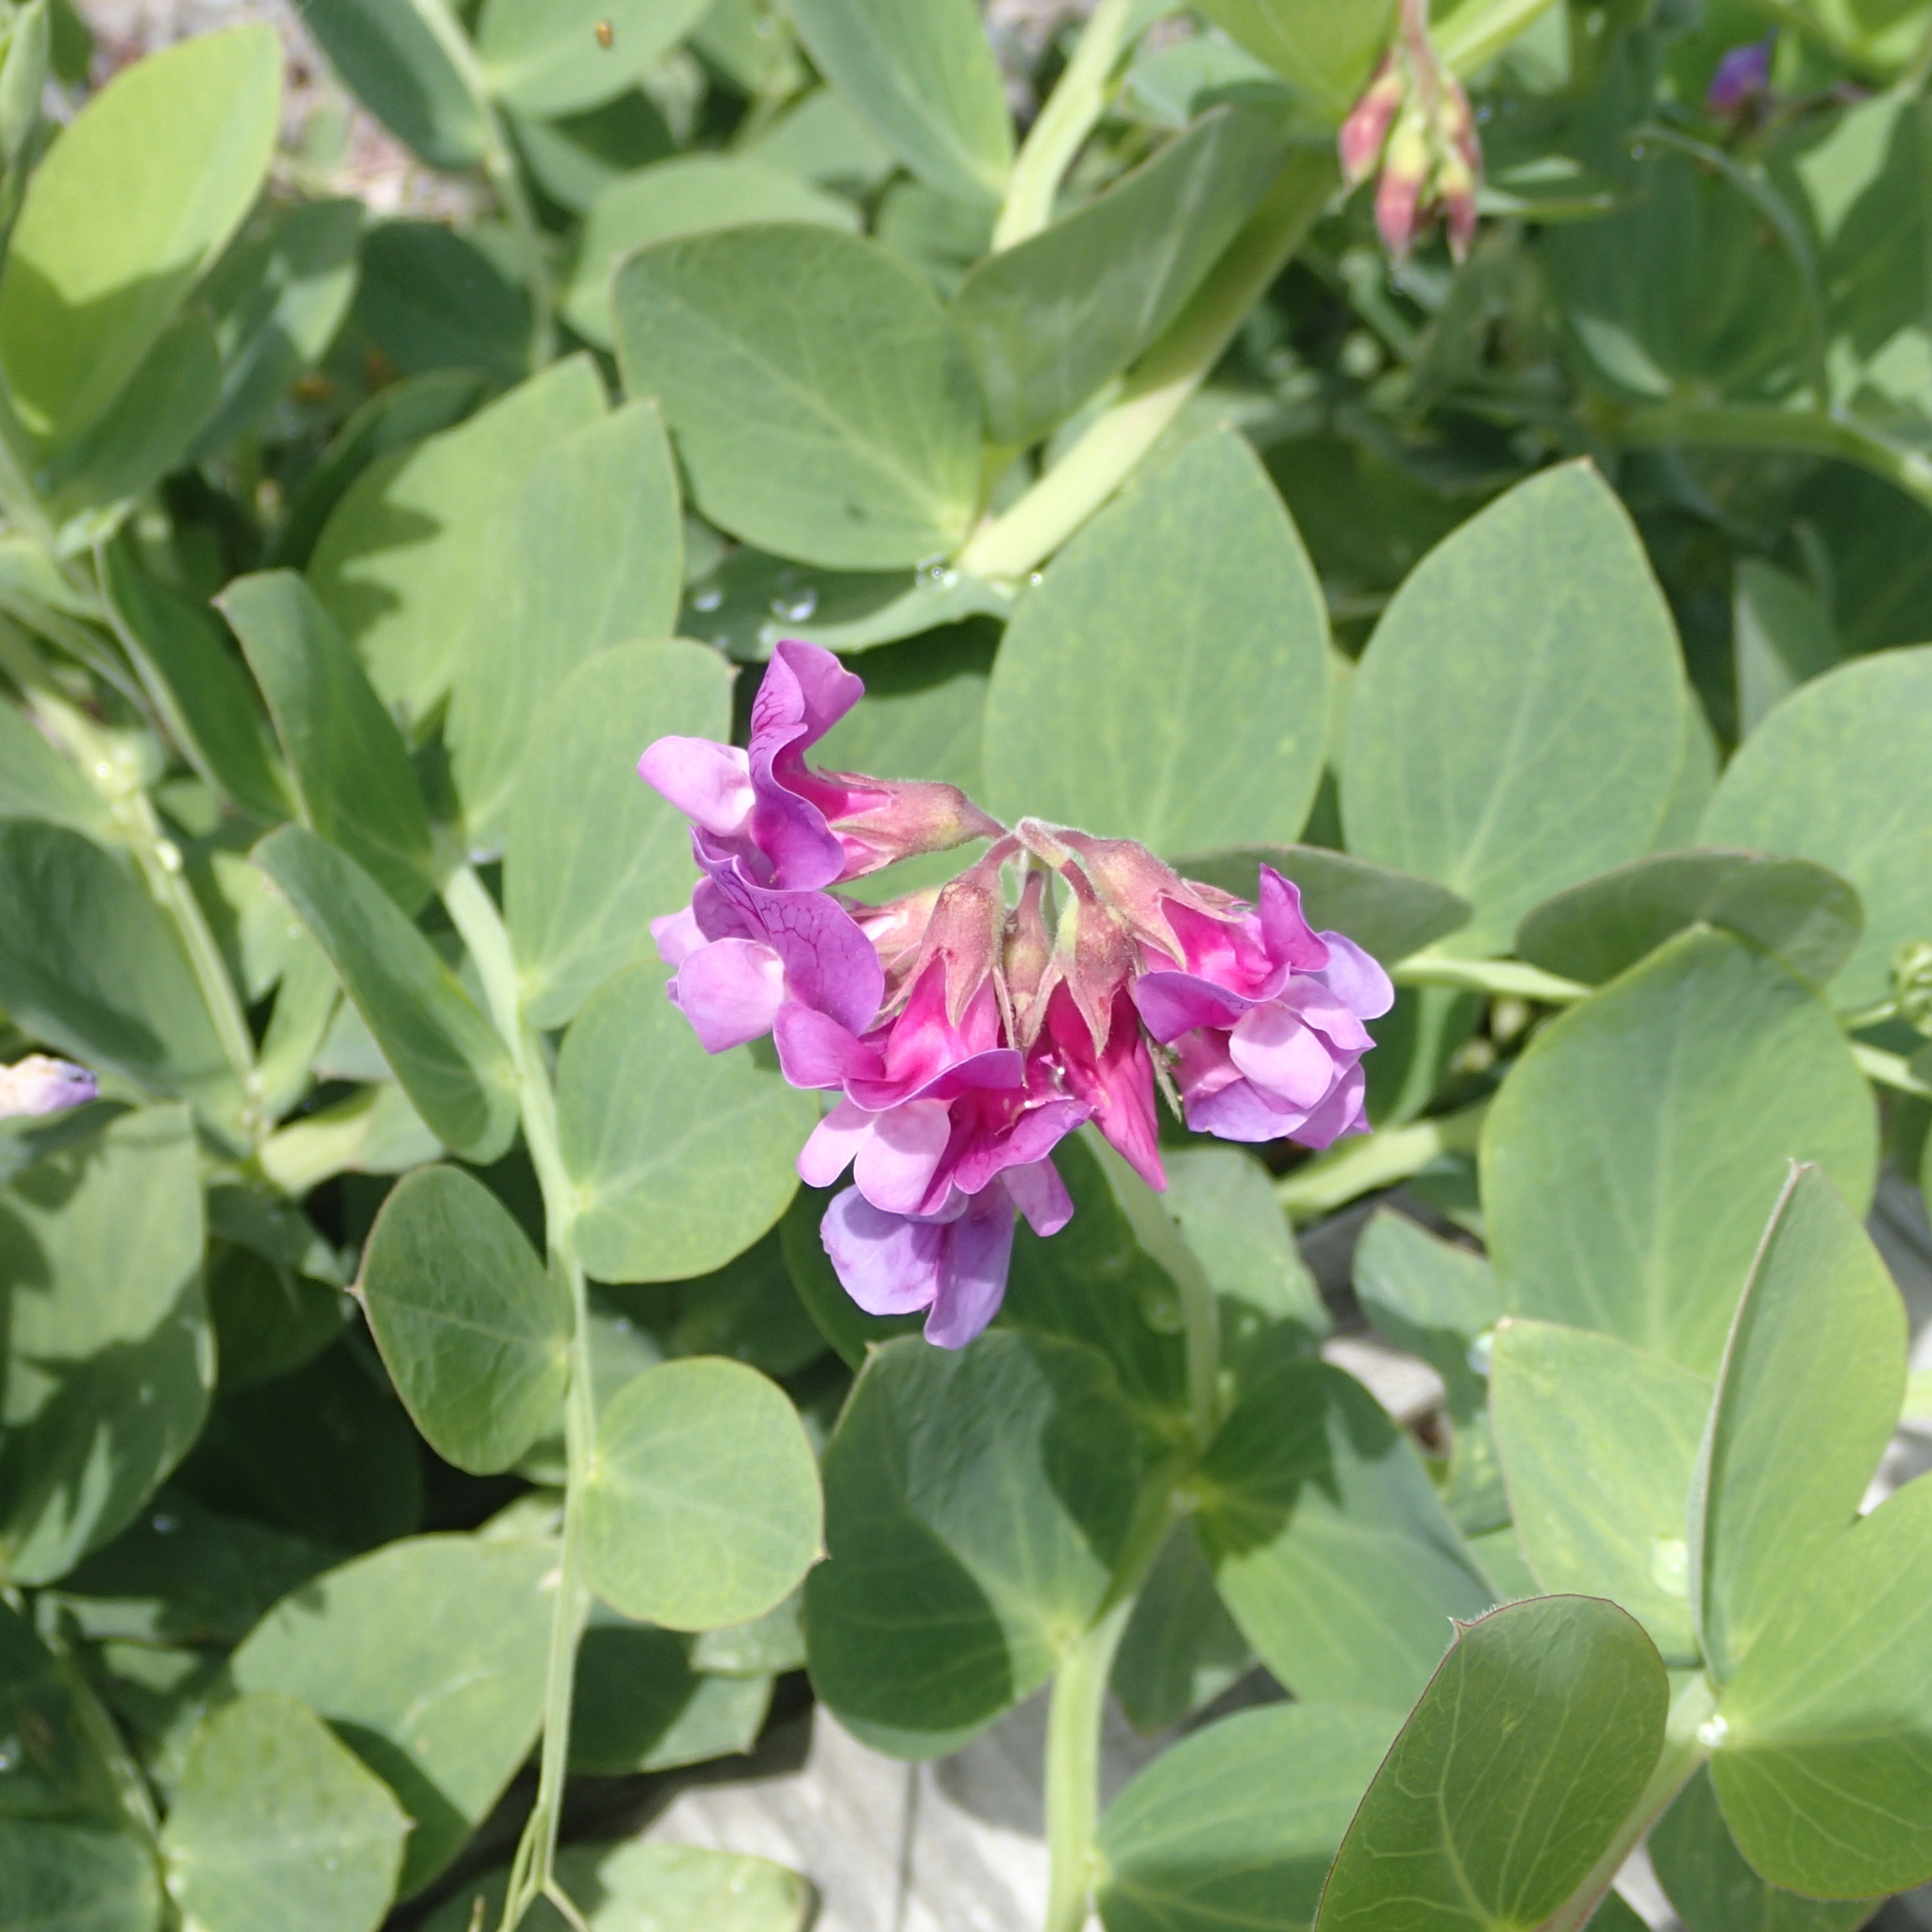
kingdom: Plantae
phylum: Tracheophyta
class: Magnoliopsida
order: Fabales
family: Fabaceae
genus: Lathyrus
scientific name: Lathyrus japonicus
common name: Sea pea
